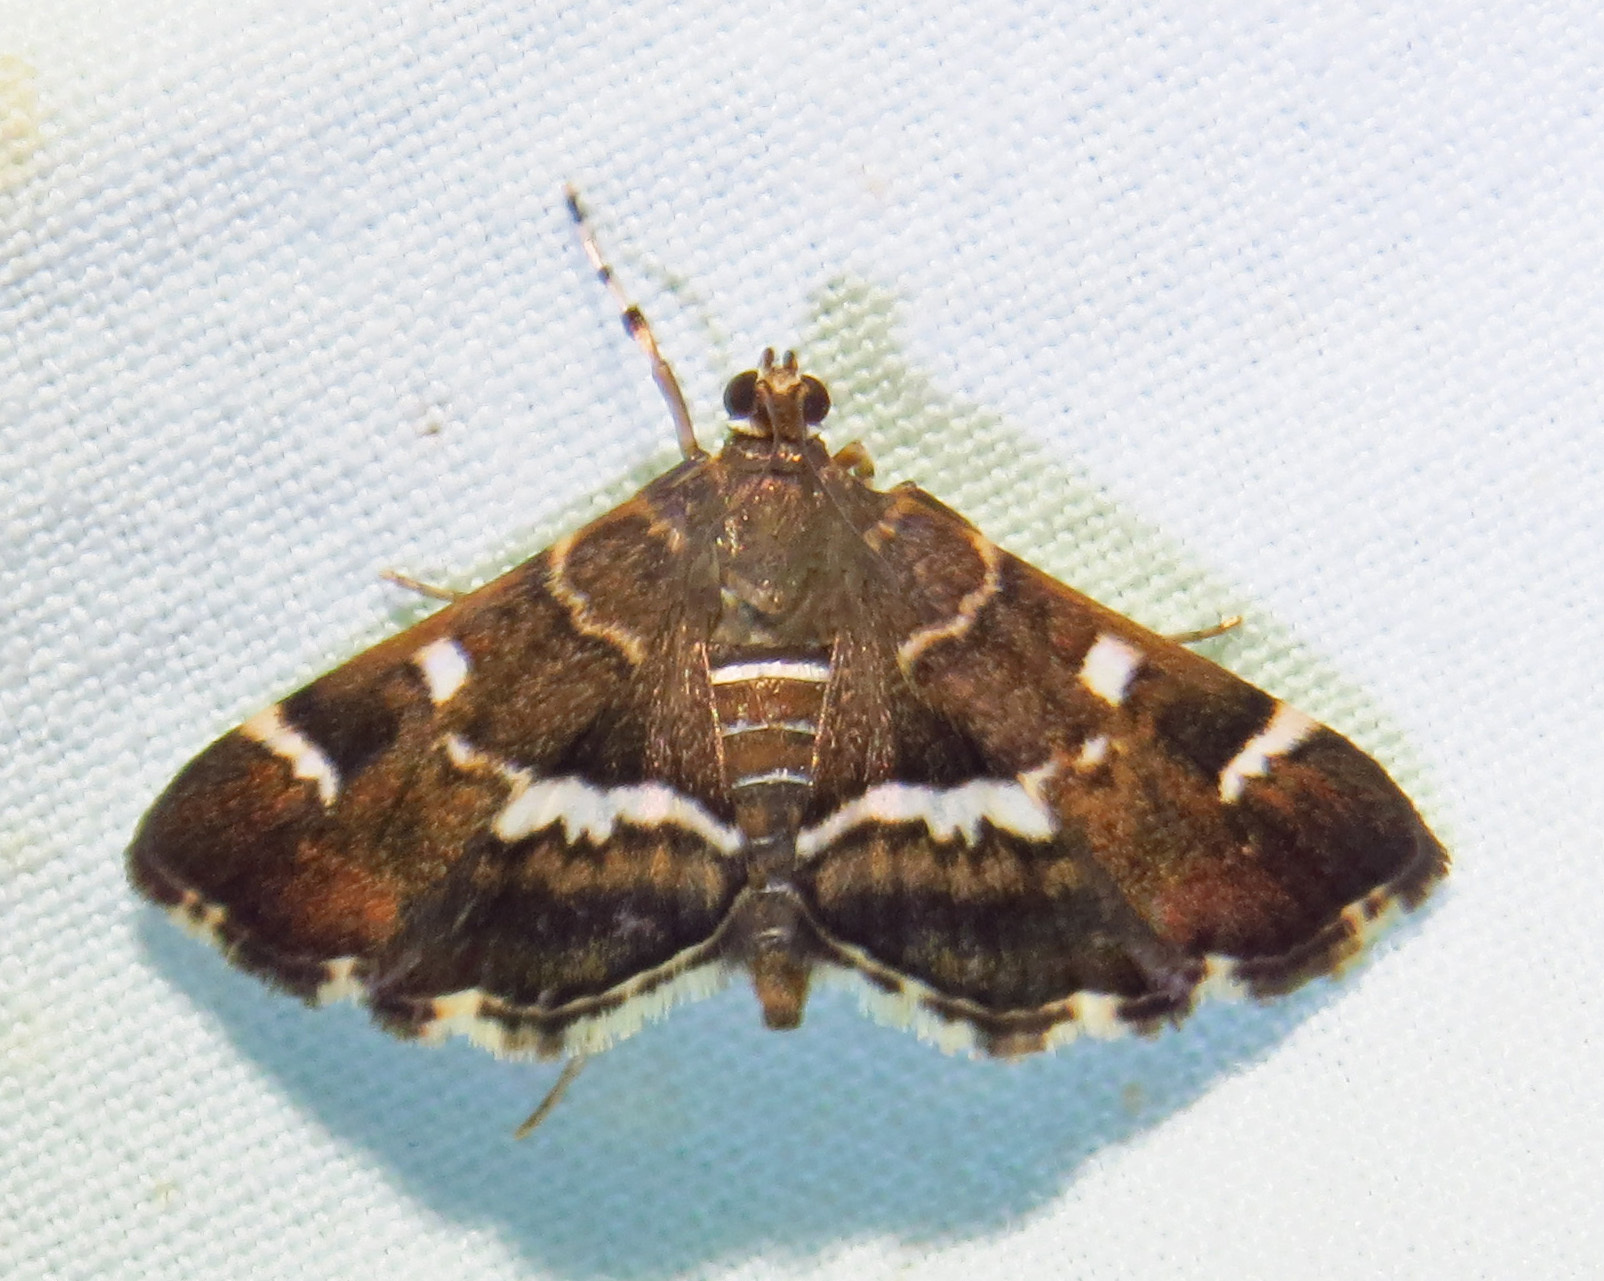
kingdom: Animalia
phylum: Arthropoda
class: Insecta
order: Lepidoptera
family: Crambidae
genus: Hymenia
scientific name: Hymenia perspectalis
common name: Spotted beet webworm
